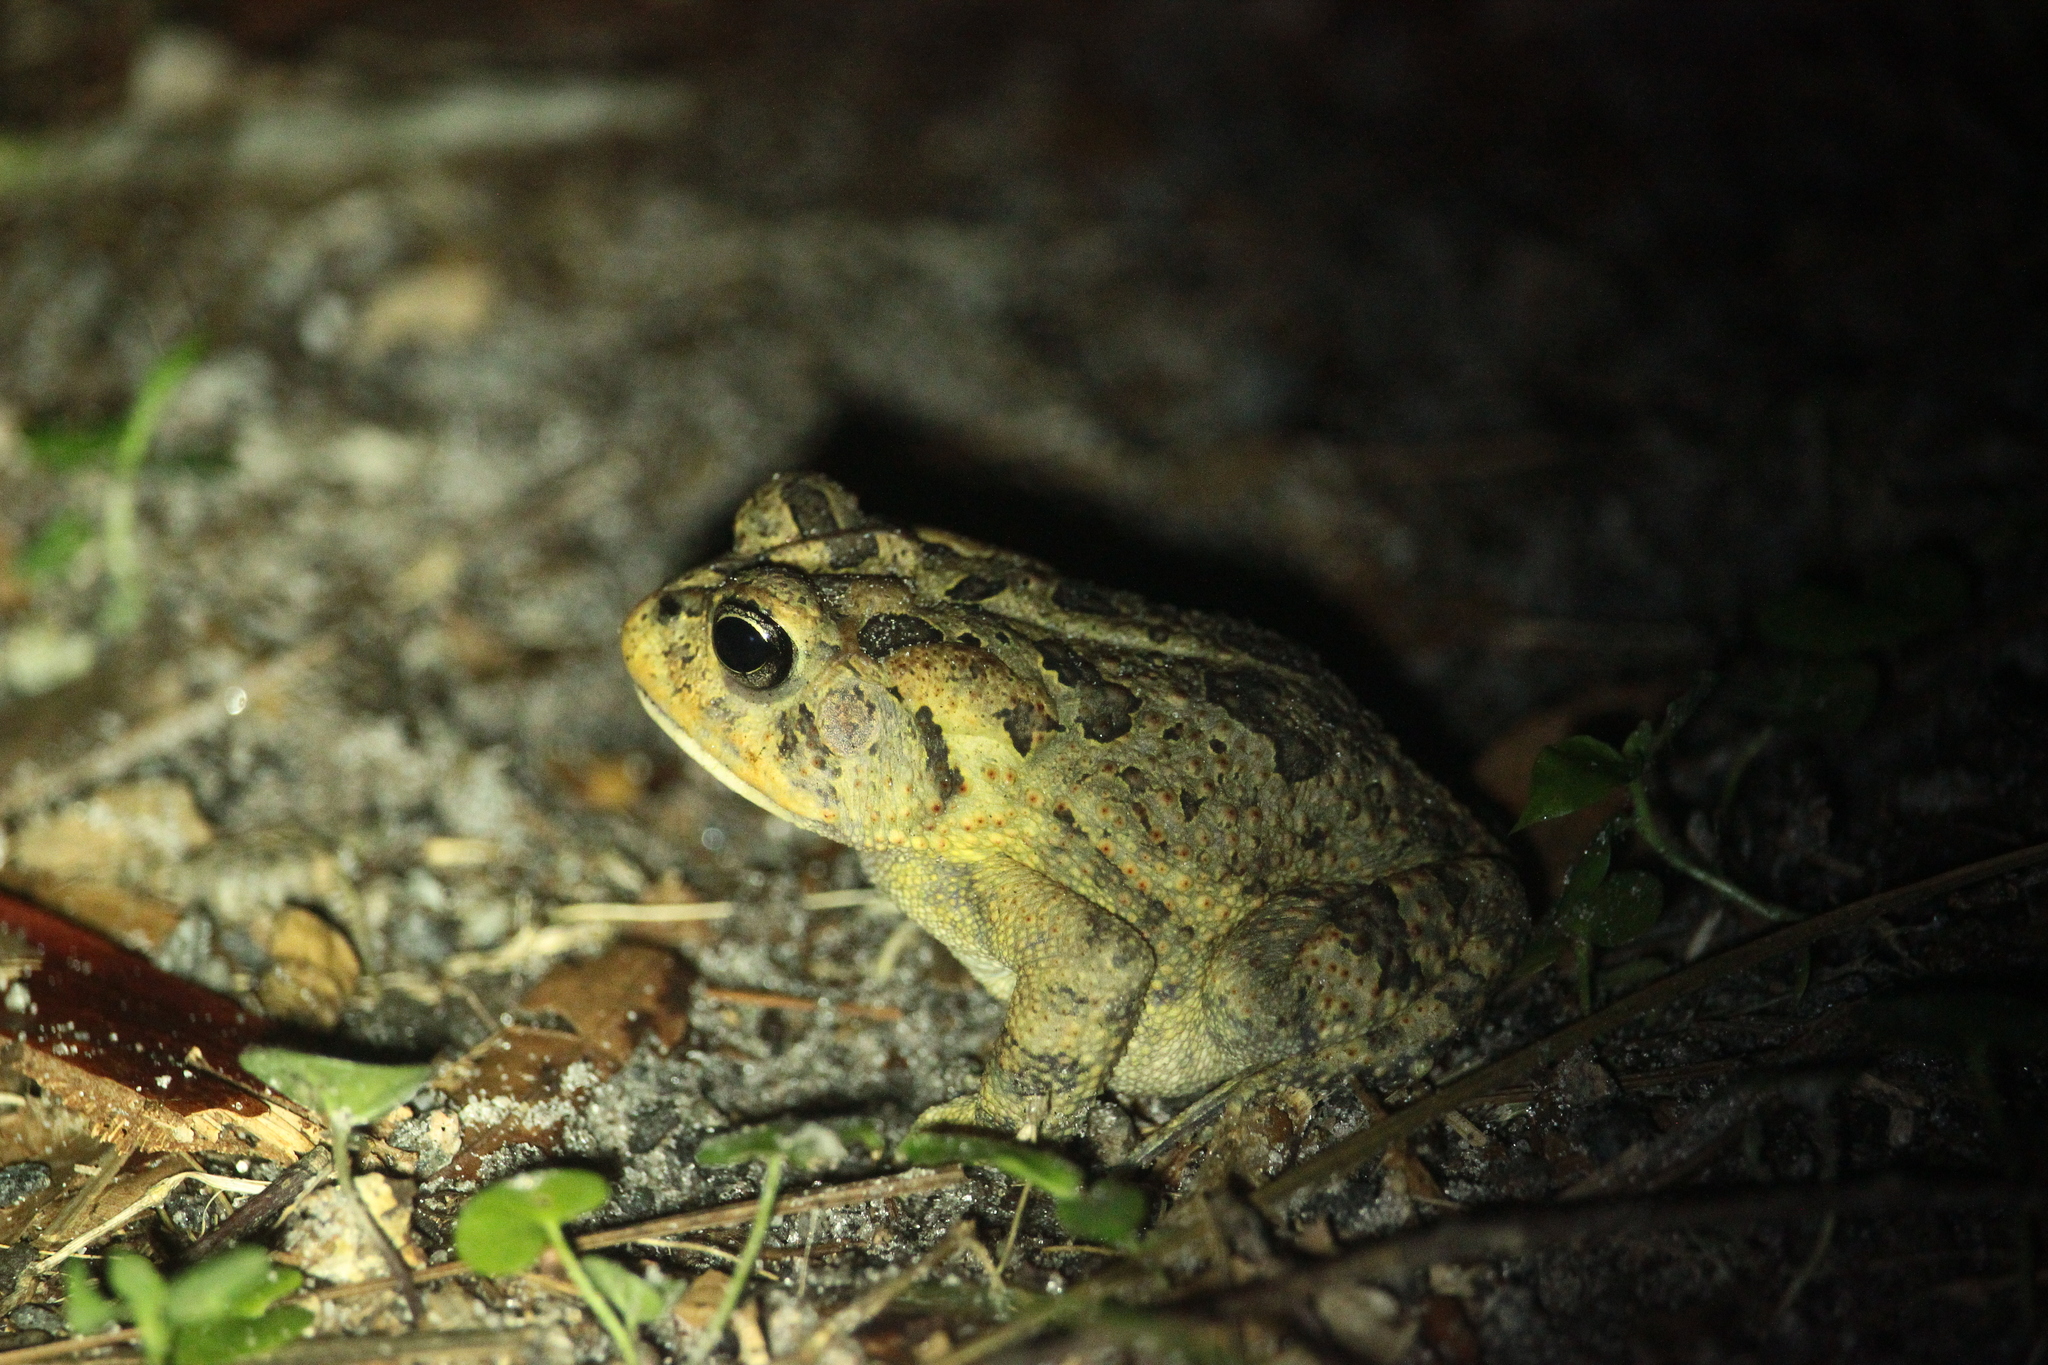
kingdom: Animalia
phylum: Chordata
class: Amphibia
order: Anura
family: Bufonidae
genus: Anaxyrus
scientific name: Anaxyrus terrestris
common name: Southern toad
